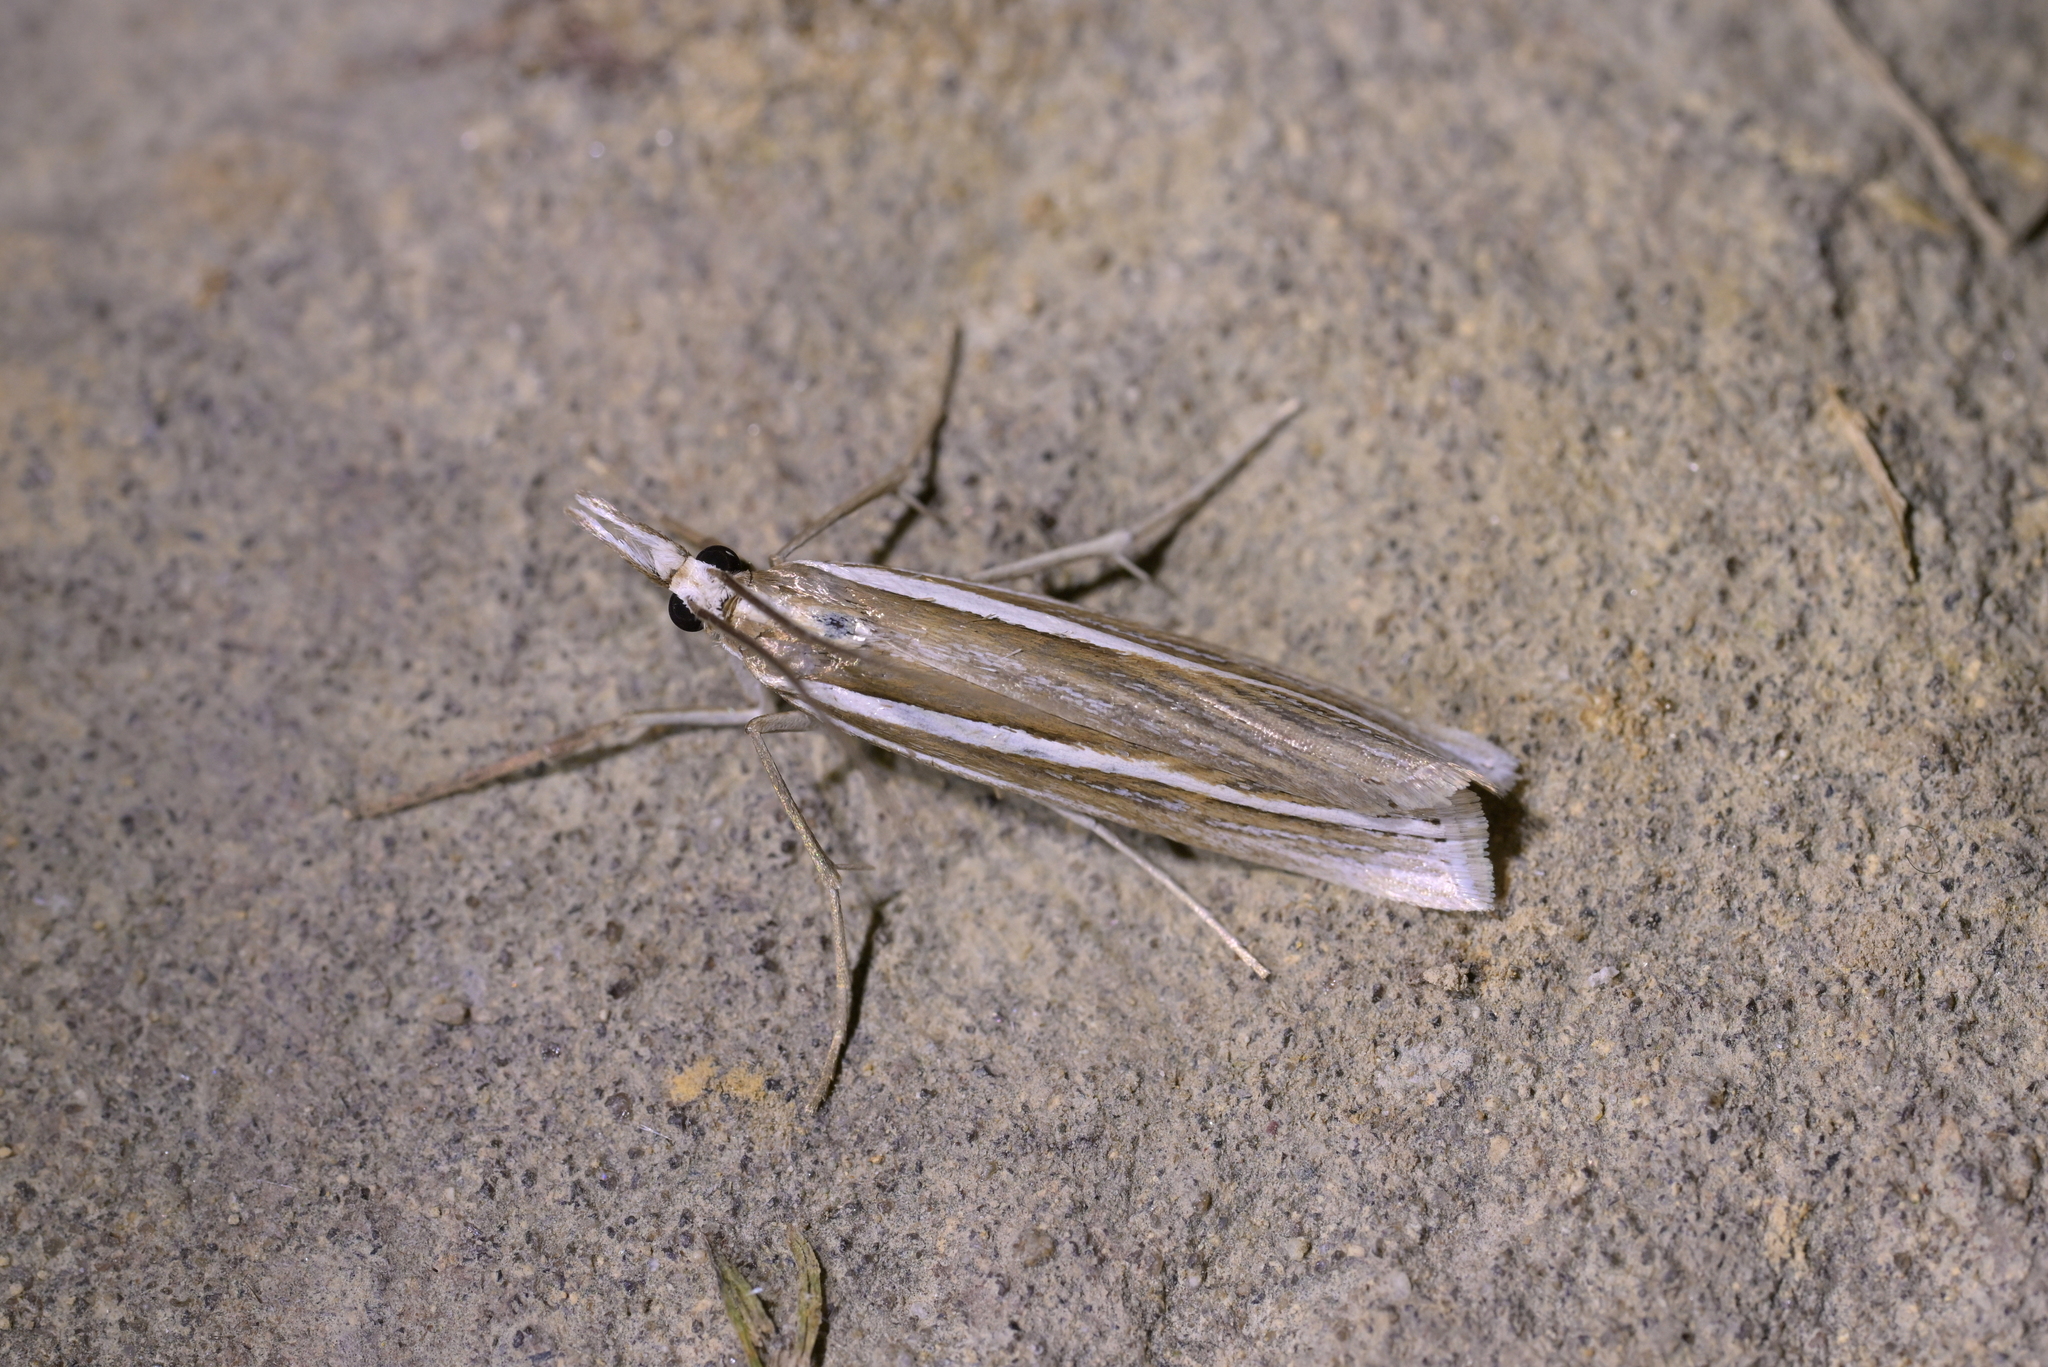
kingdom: Animalia
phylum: Arthropoda
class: Insecta
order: Lepidoptera
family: Crambidae
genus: Orocrambus
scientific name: Orocrambus enchophorus
